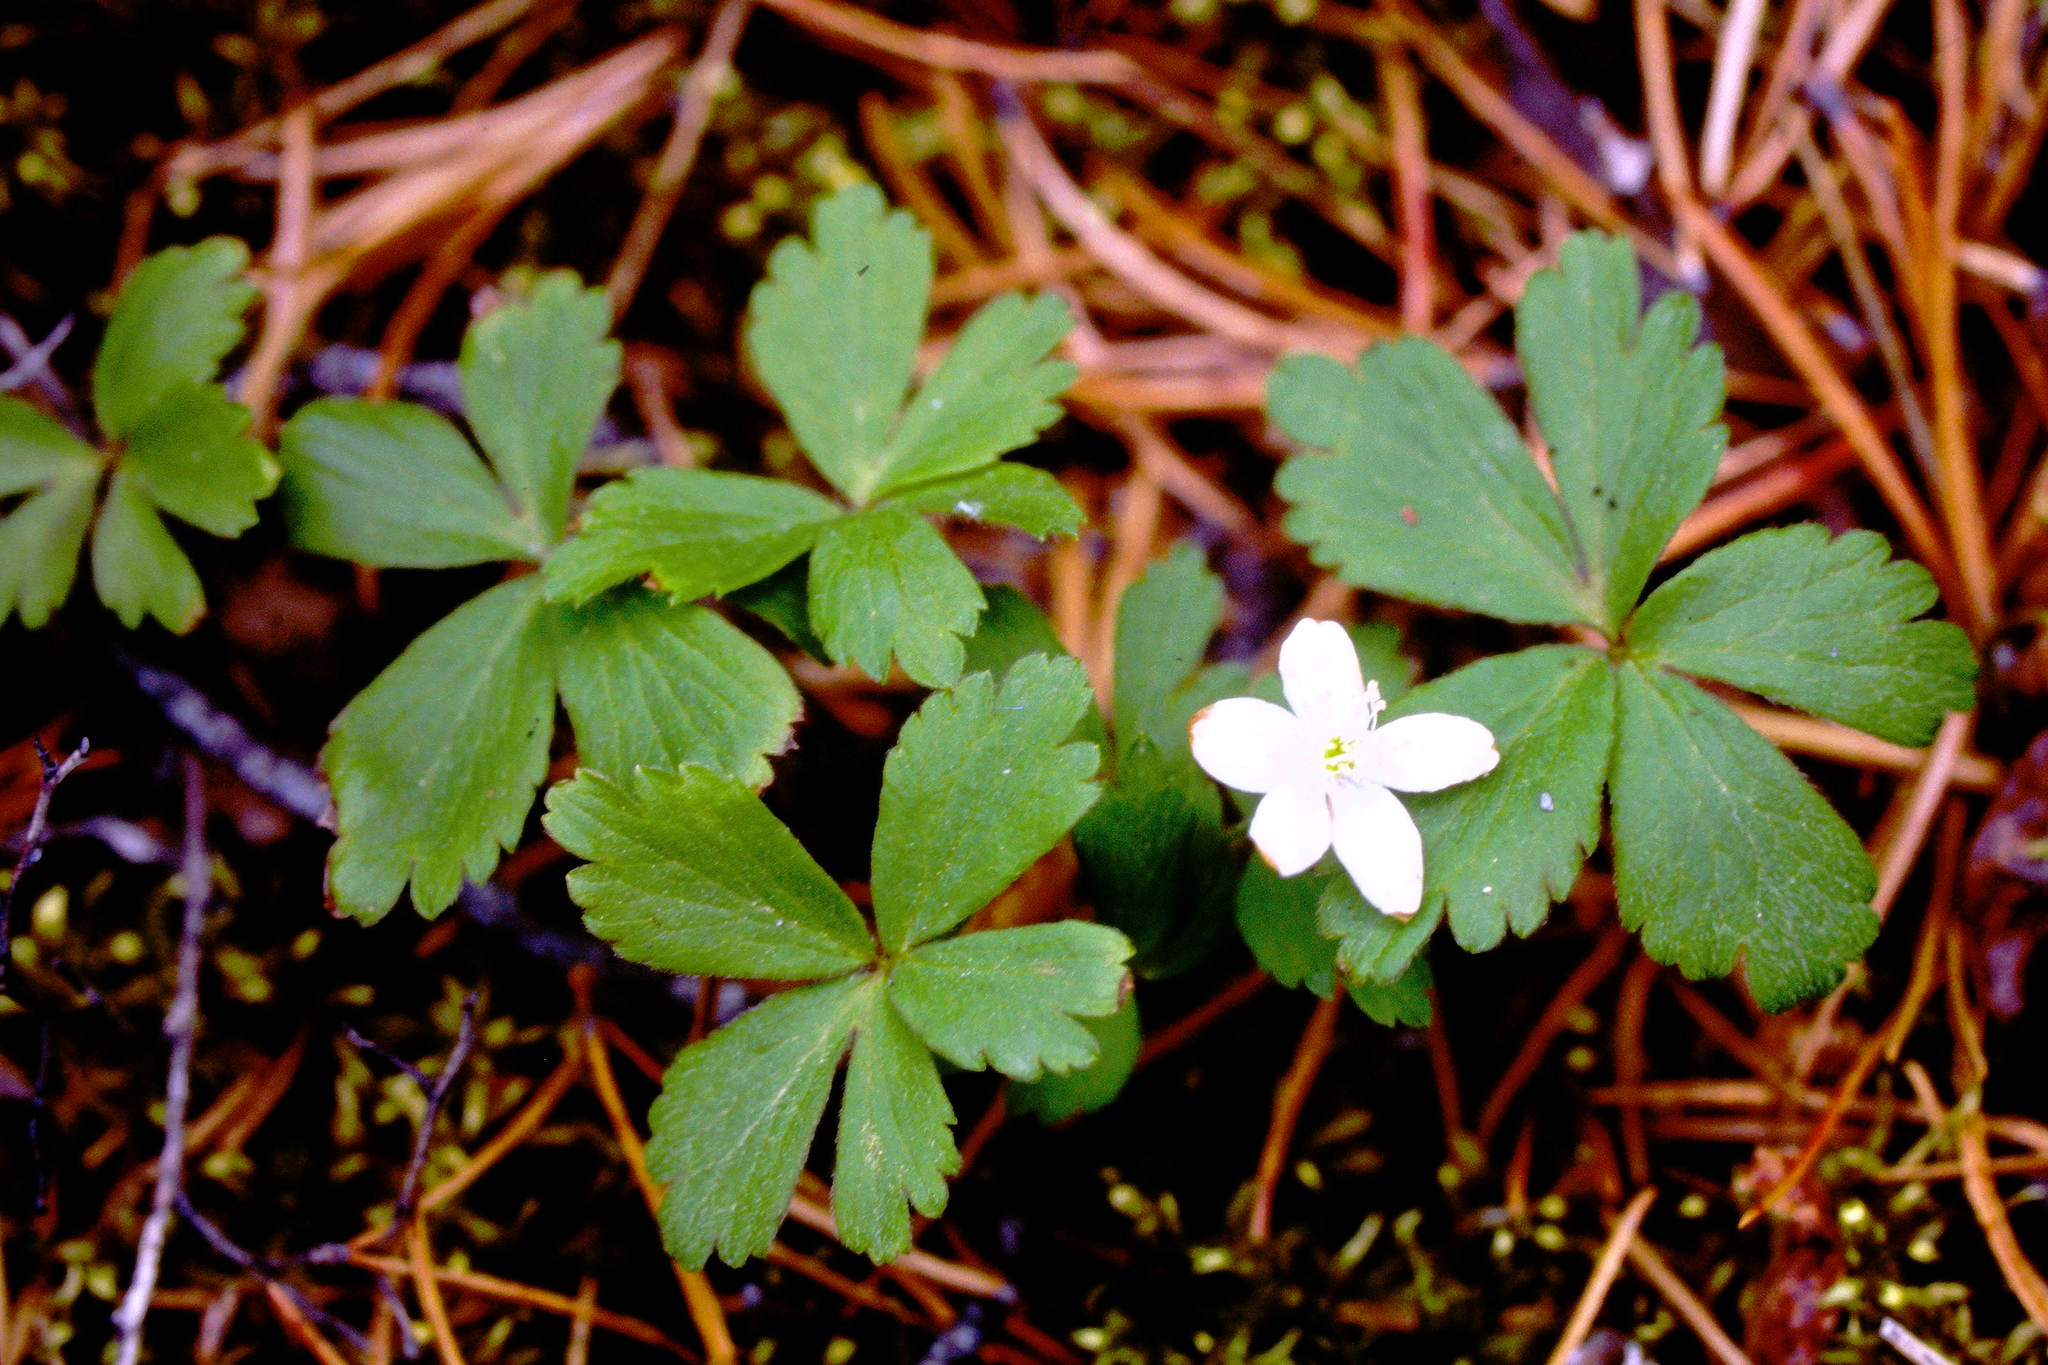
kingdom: Plantae
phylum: Tracheophyta
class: Magnoliopsida
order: Ranunculales
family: Ranunculaceae
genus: Anemone
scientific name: Anemone quinquefolia
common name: Wood anemone
